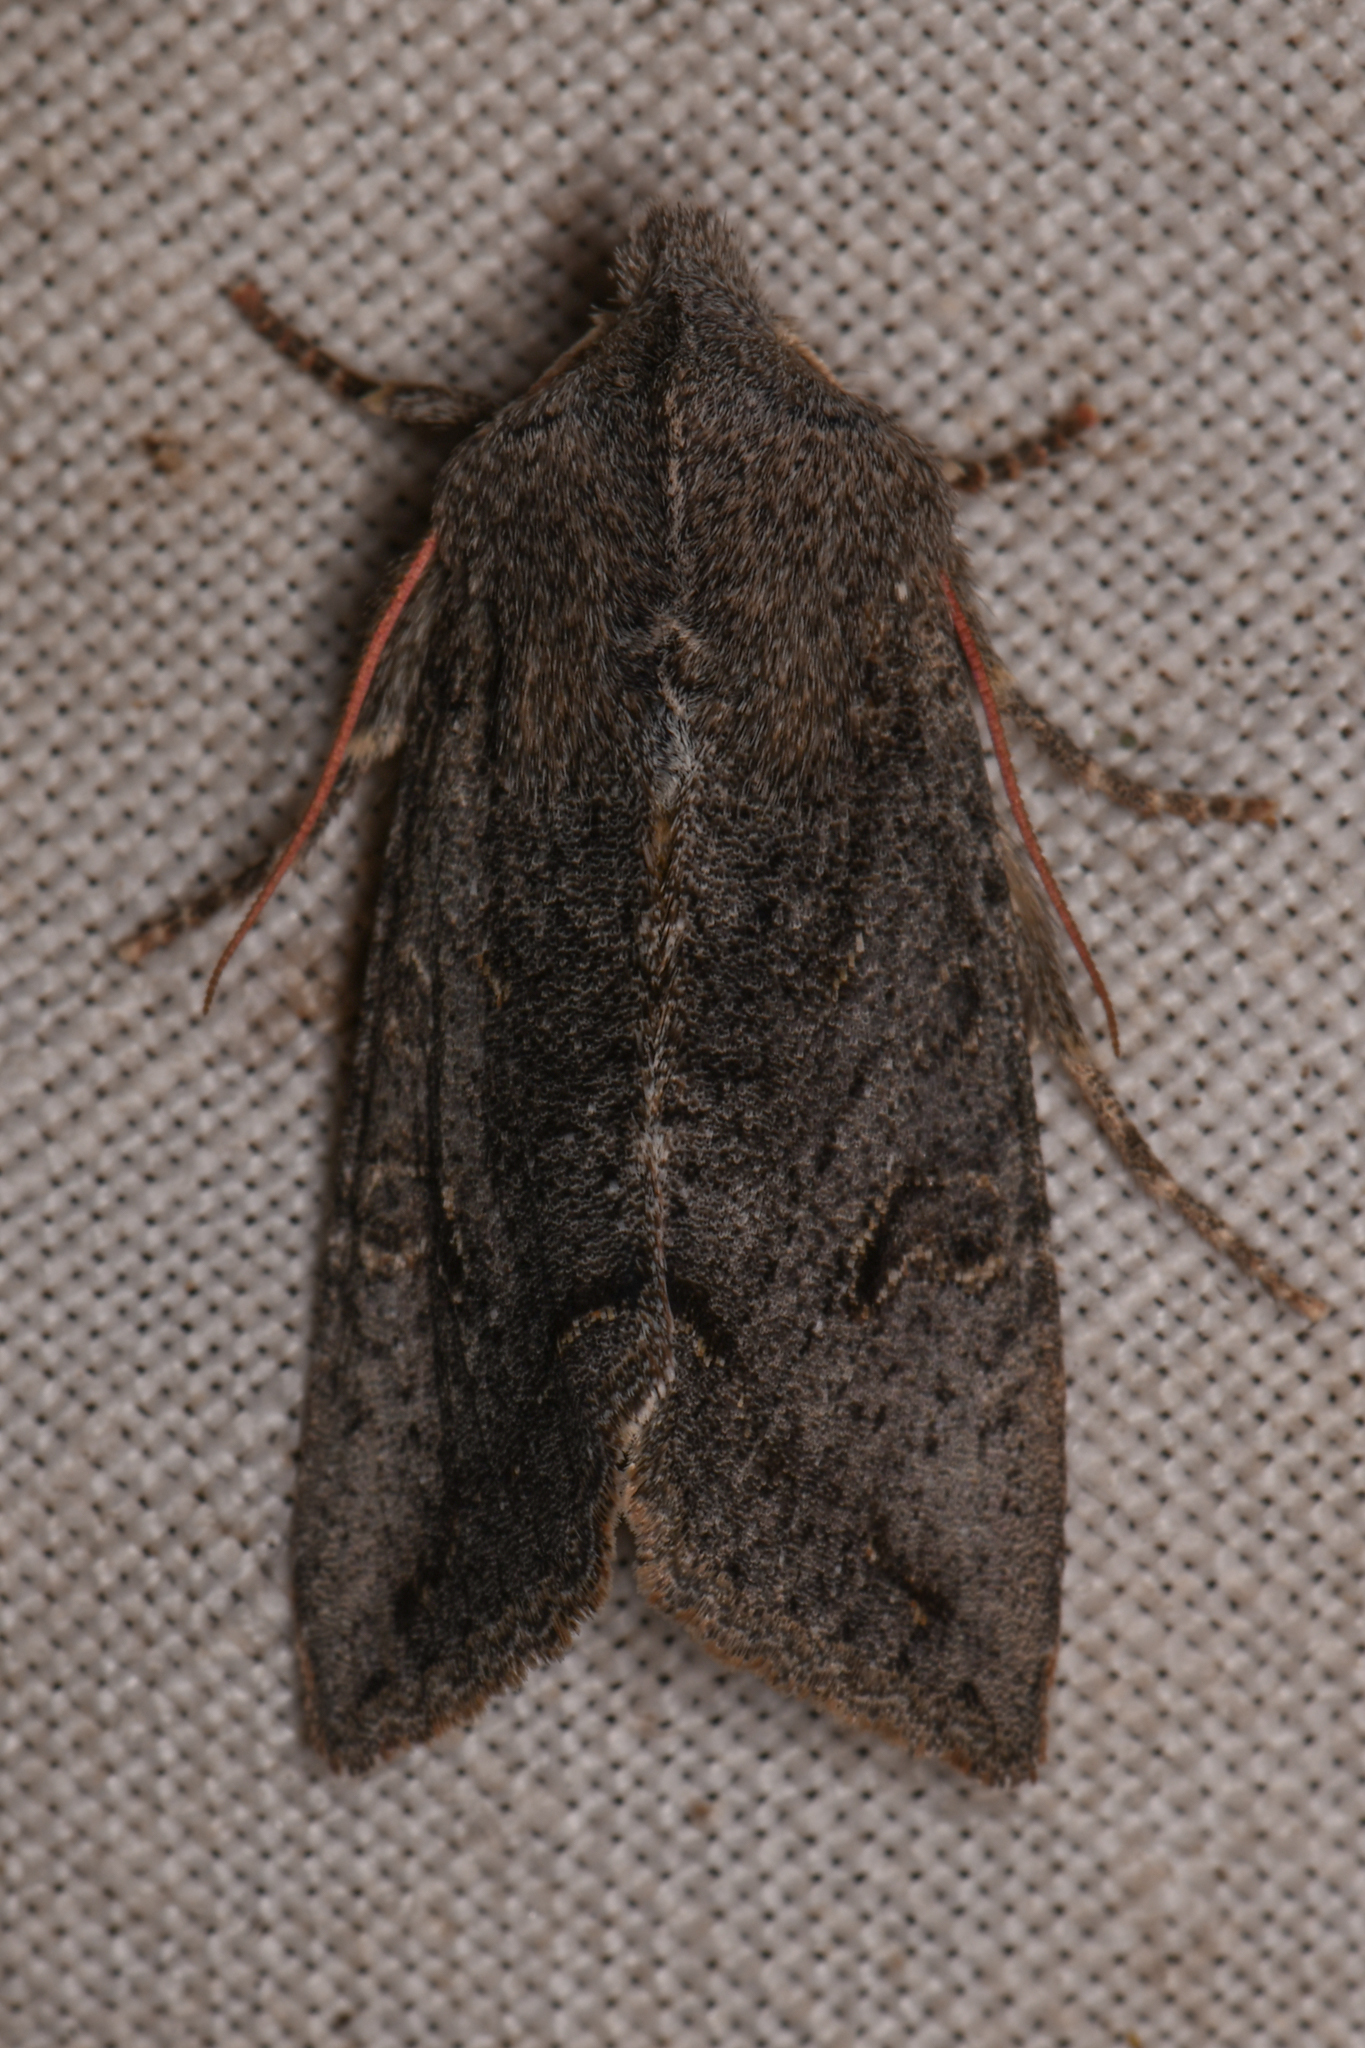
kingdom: Animalia
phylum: Arthropoda
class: Insecta
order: Lepidoptera
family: Noctuidae
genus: Orthosia
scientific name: Orthosia erythrolita
